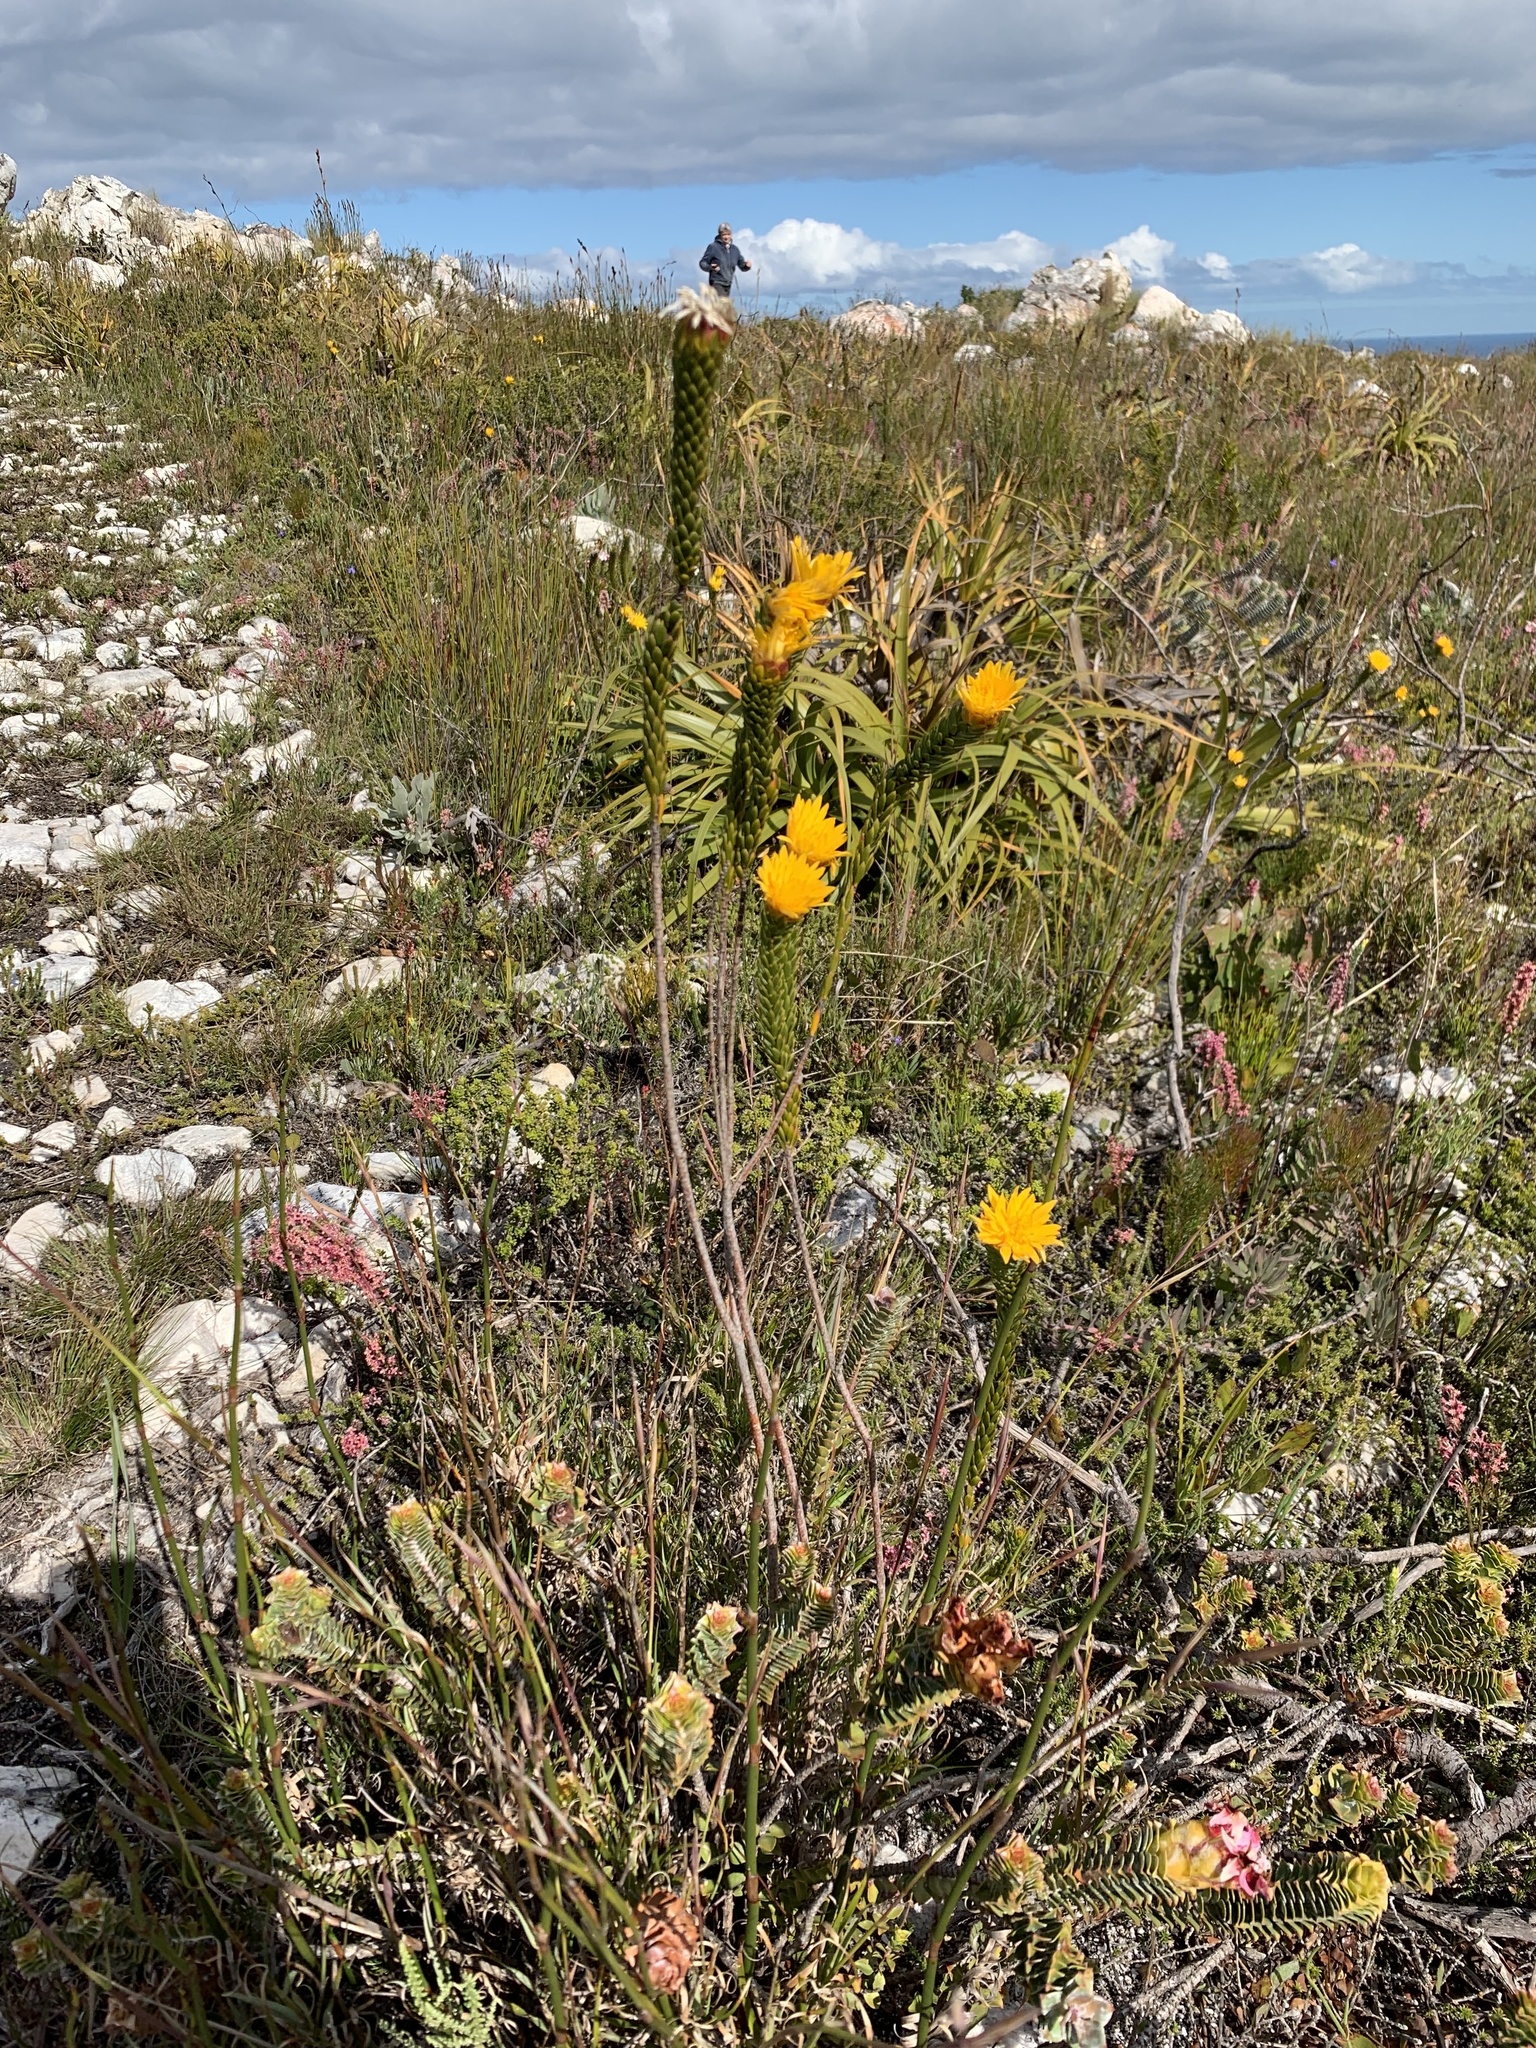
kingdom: Plantae
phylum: Tracheophyta
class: Magnoliopsida
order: Malvales
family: Thymelaeaceae
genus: Lachnaea
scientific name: Lachnaea aurea
